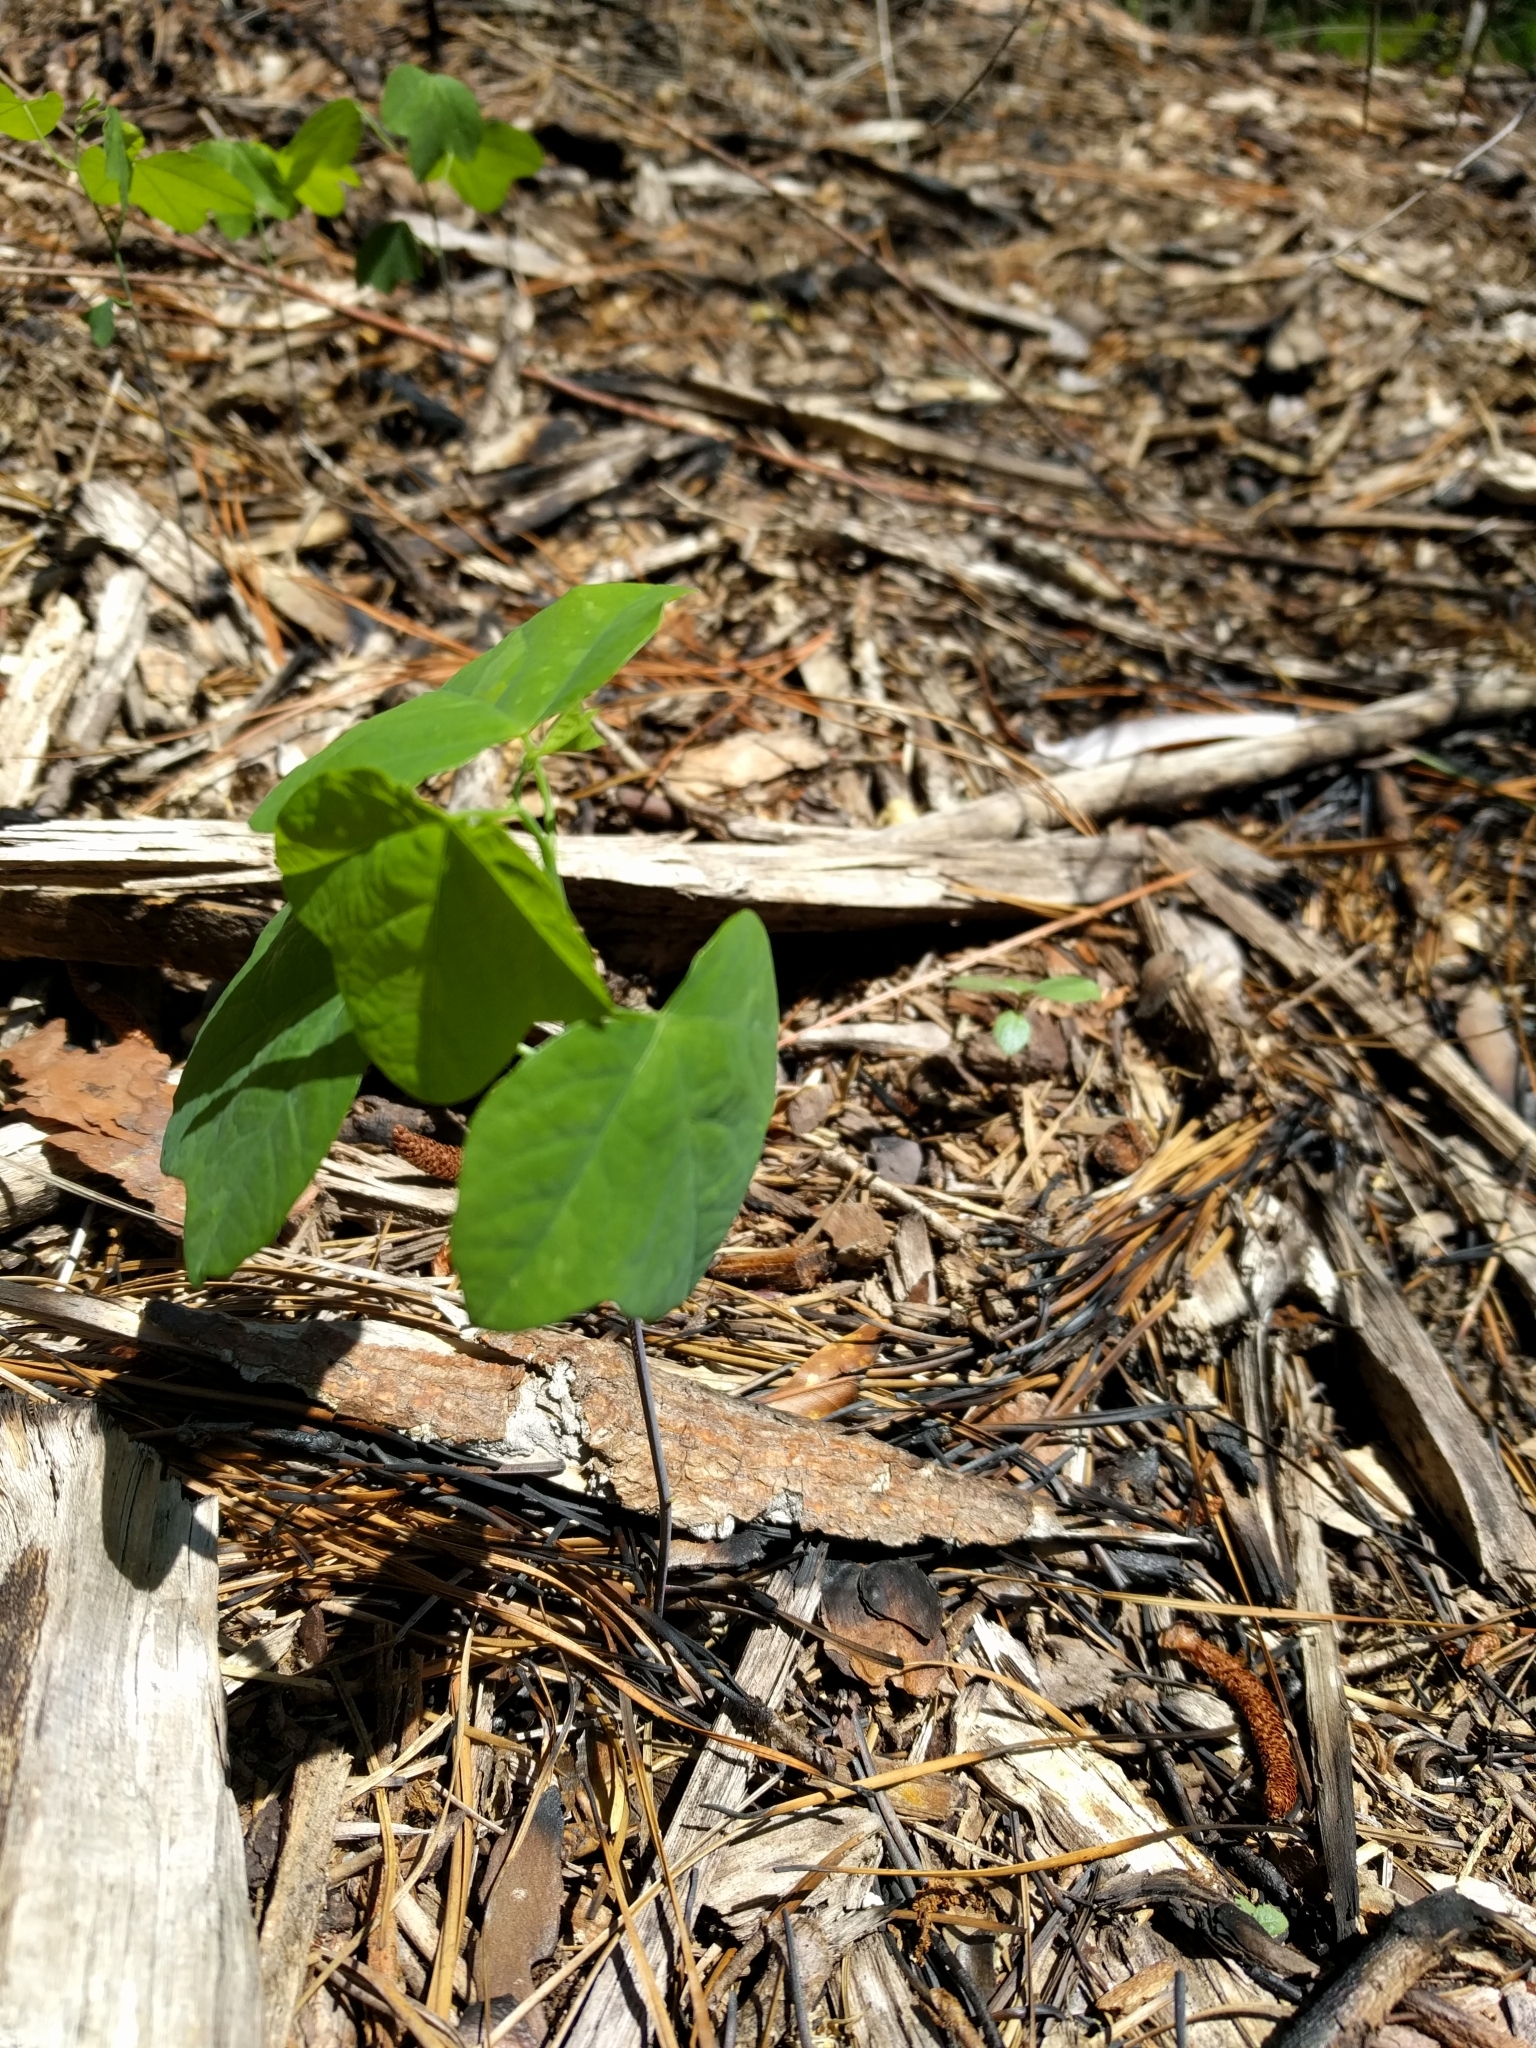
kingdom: Plantae
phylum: Tracheophyta
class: Magnoliopsida
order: Malpighiales
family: Passifloraceae
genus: Passiflora
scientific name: Passiflora lutea
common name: Yellow passionflower
